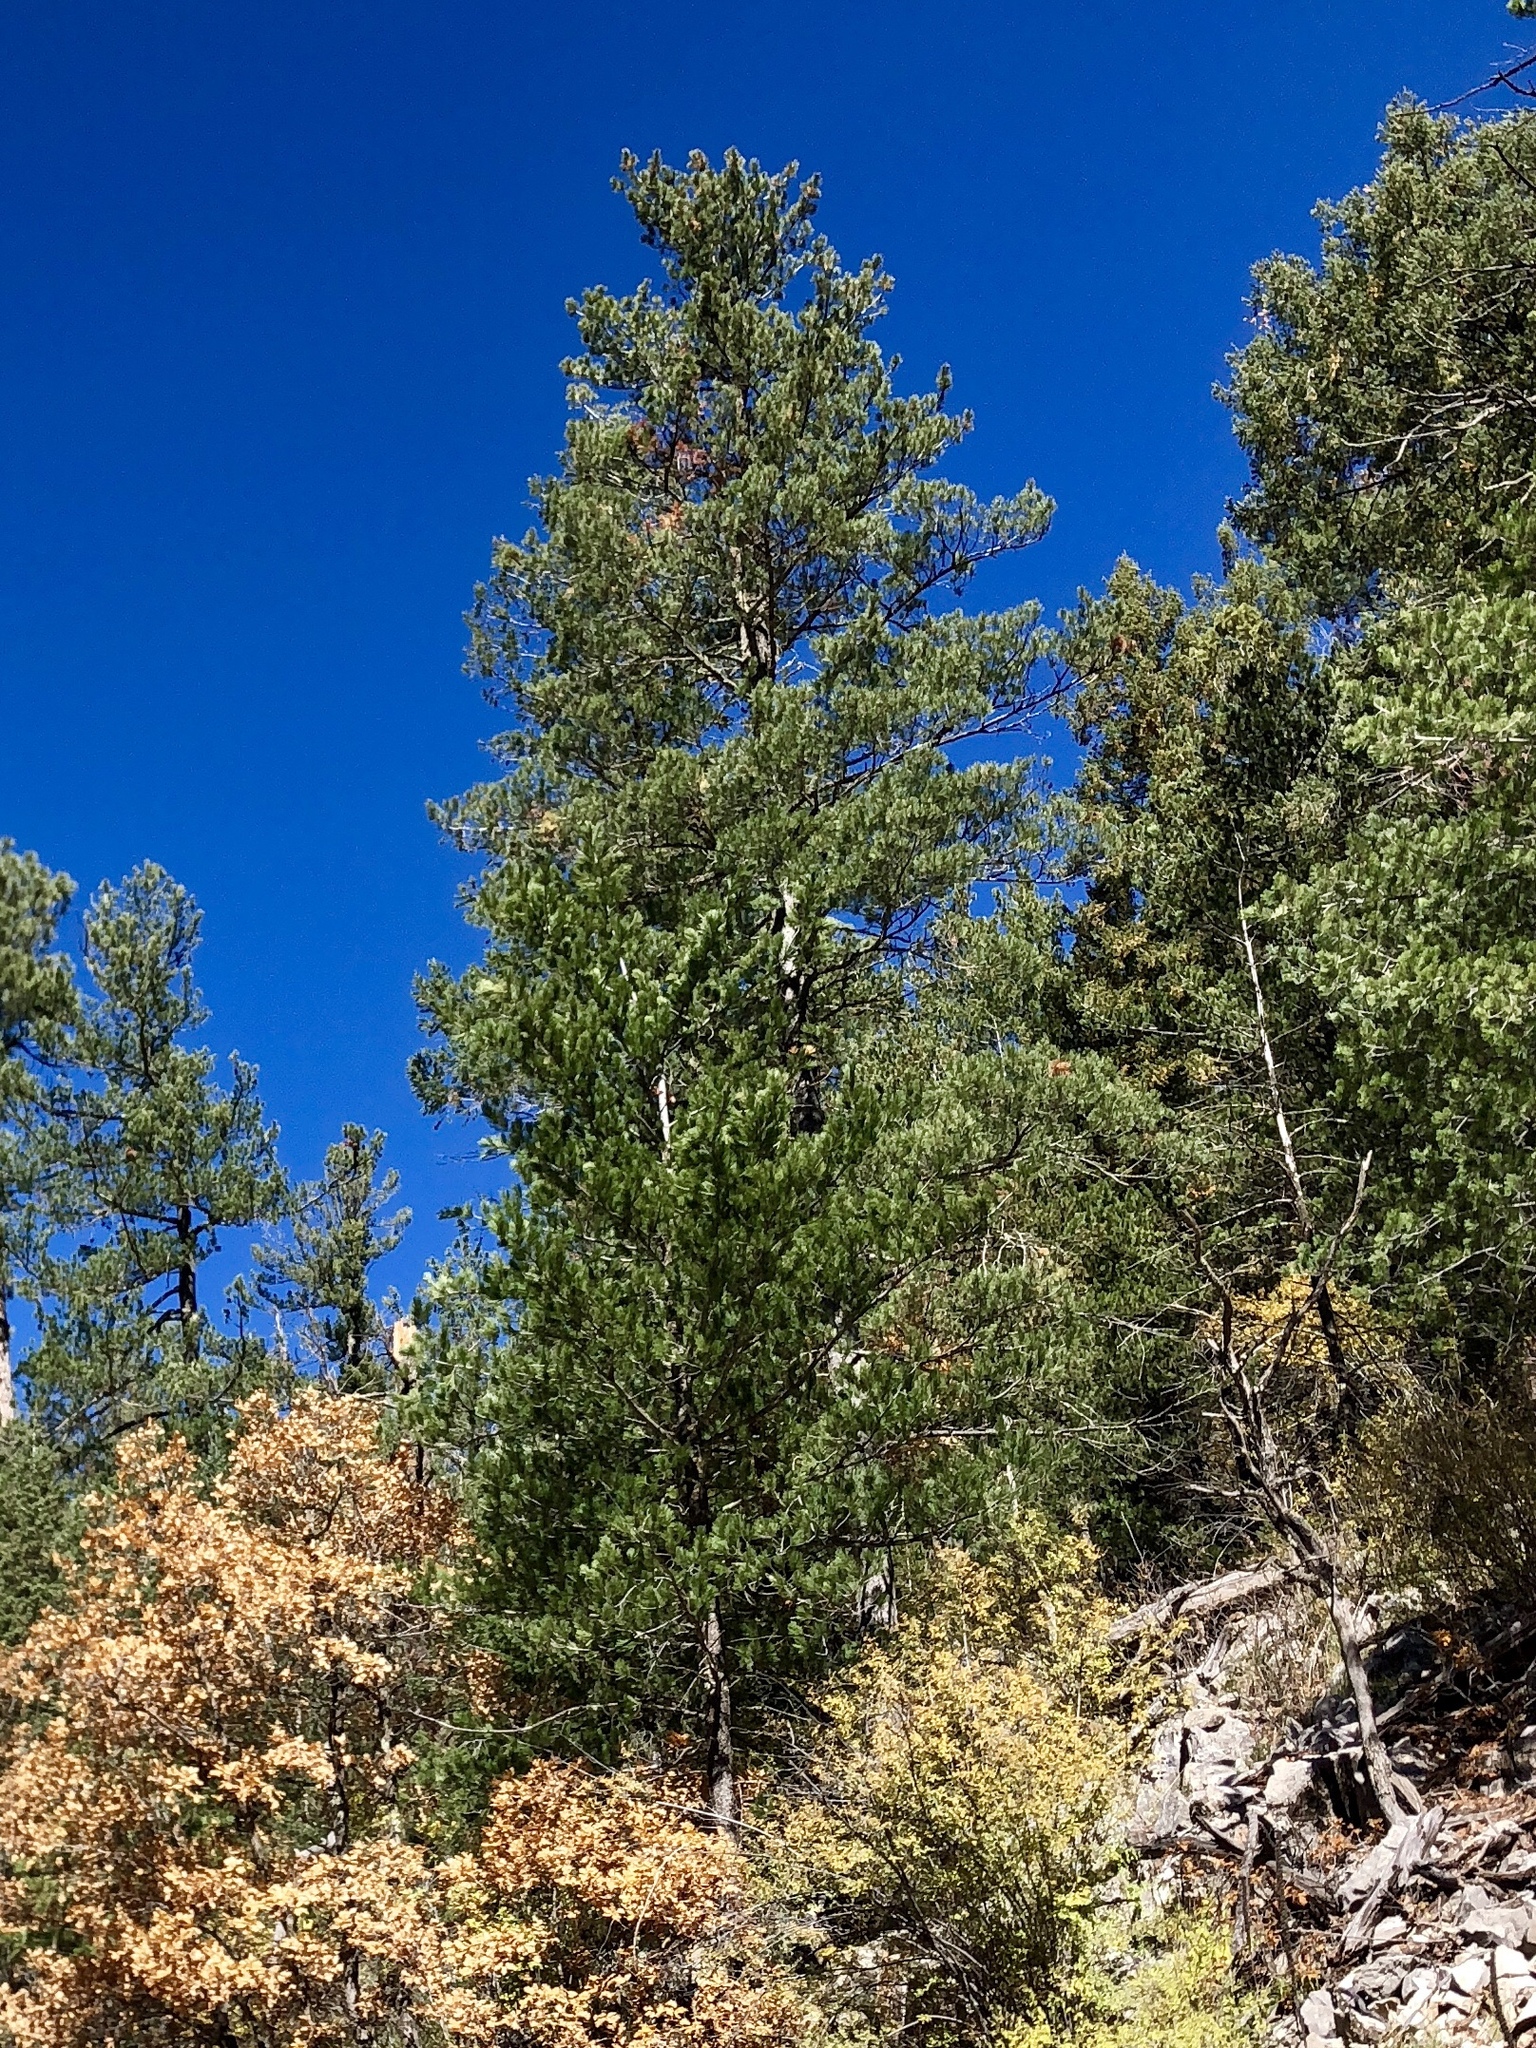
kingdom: Plantae
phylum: Tracheophyta
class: Pinopsida
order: Pinales
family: Pinaceae
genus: Pinus
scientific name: Pinus ponderosa
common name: Western yellow-pine
